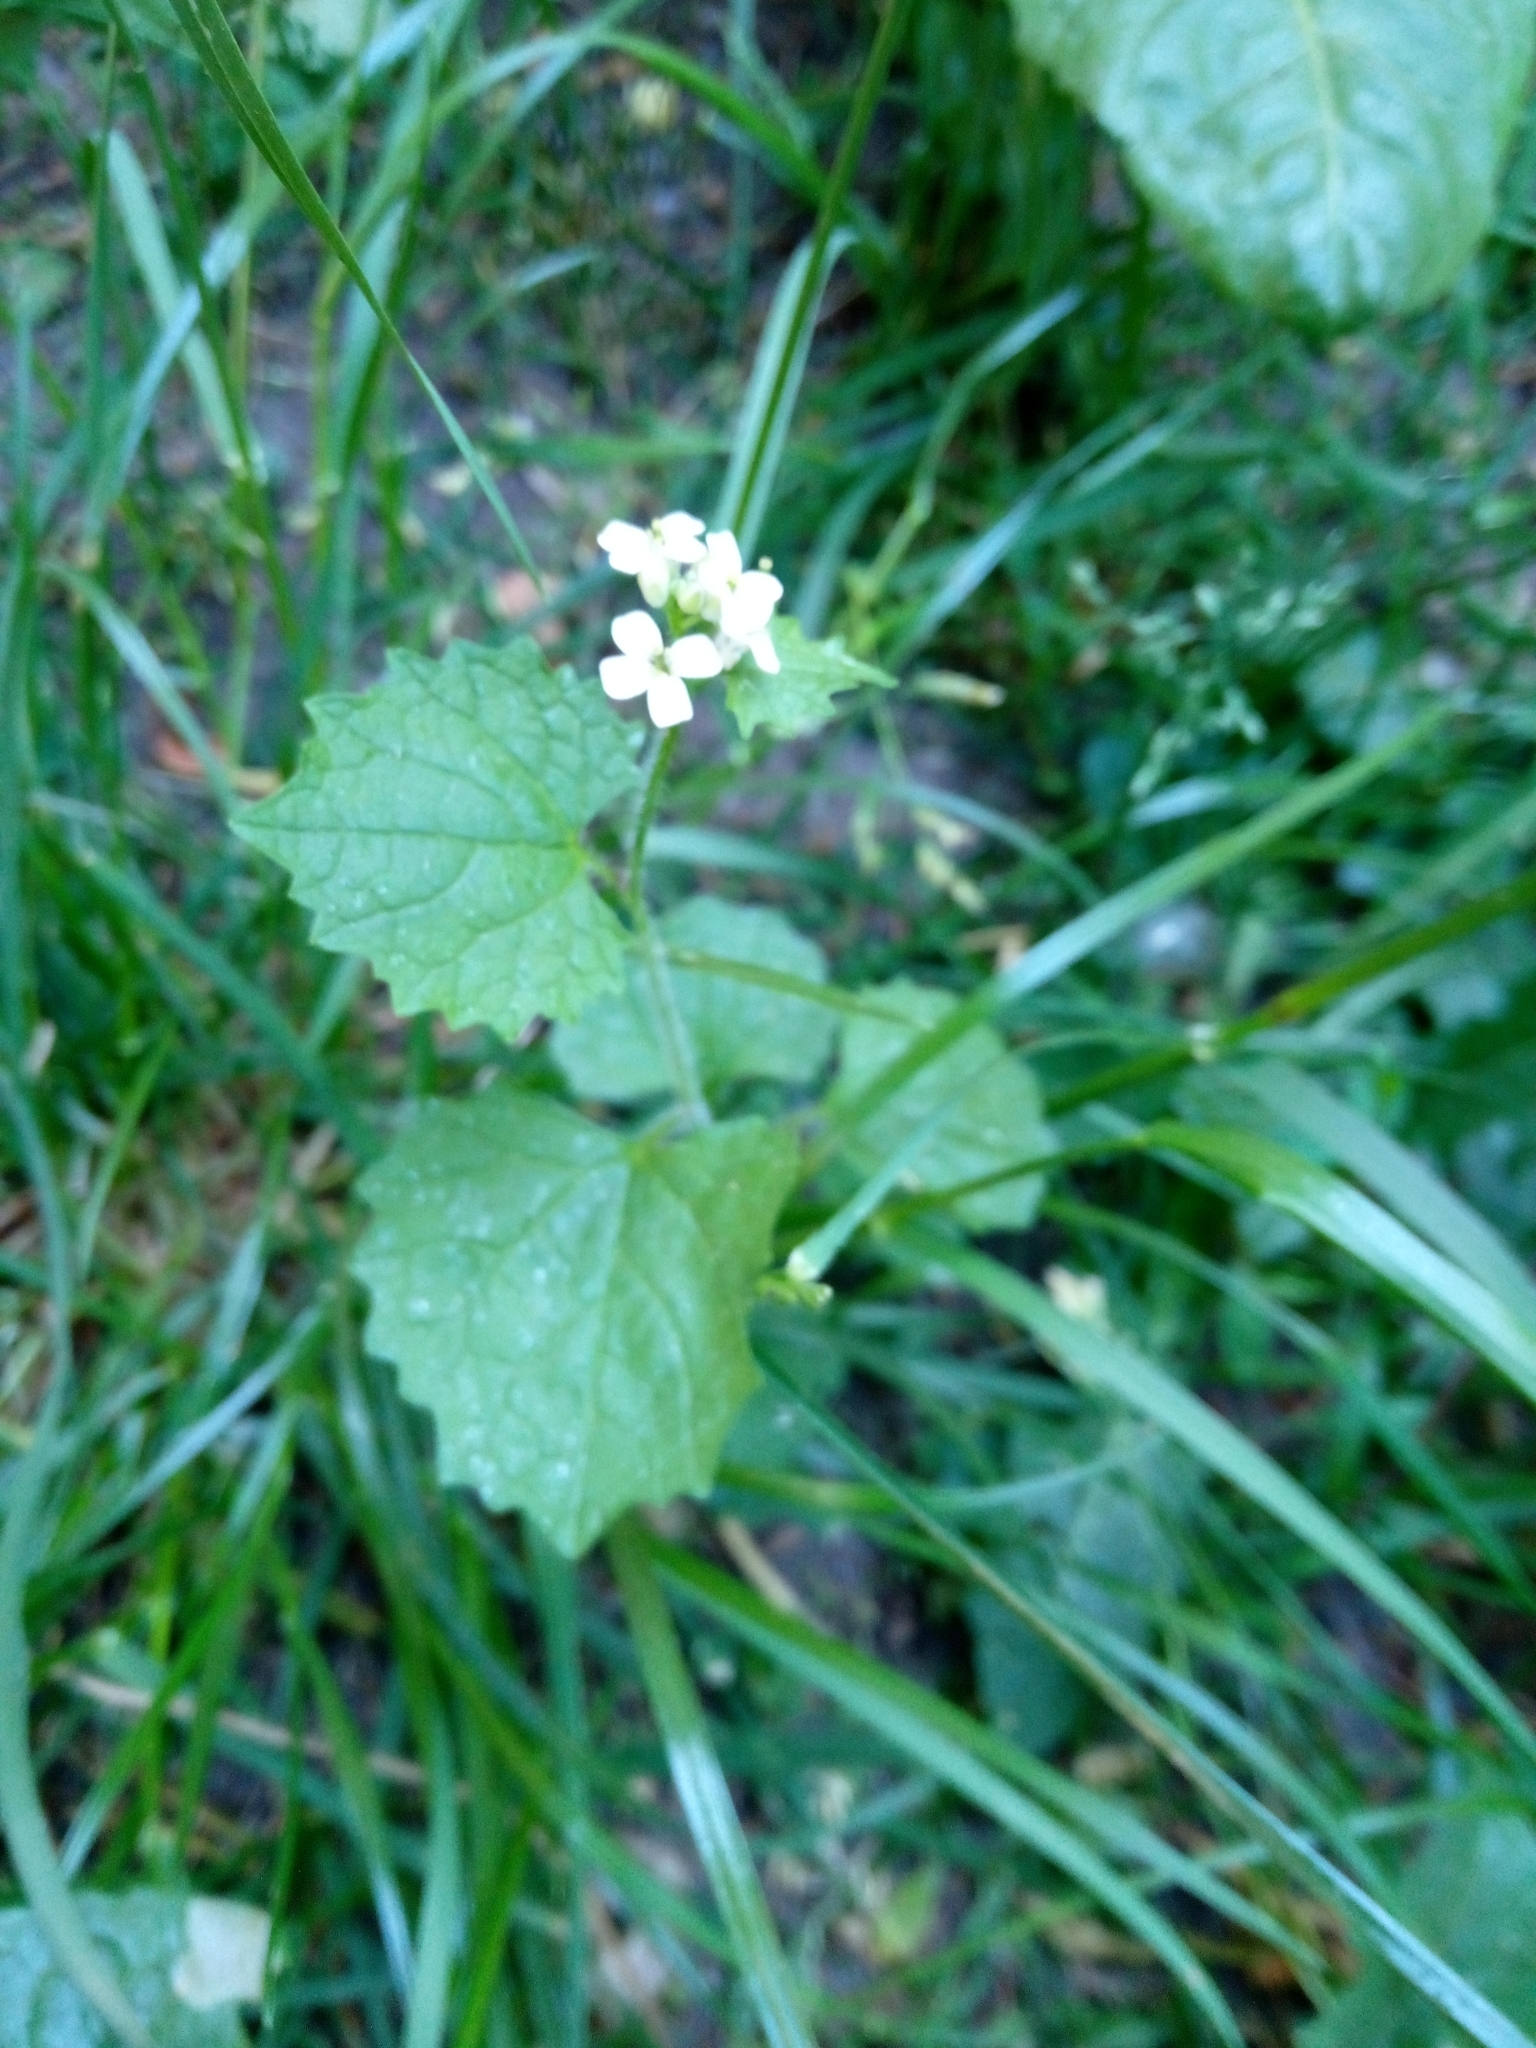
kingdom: Plantae
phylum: Tracheophyta
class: Magnoliopsida
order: Brassicales
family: Brassicaceae
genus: Alliaria
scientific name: Alliaria petiolata
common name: Garlic mustard
